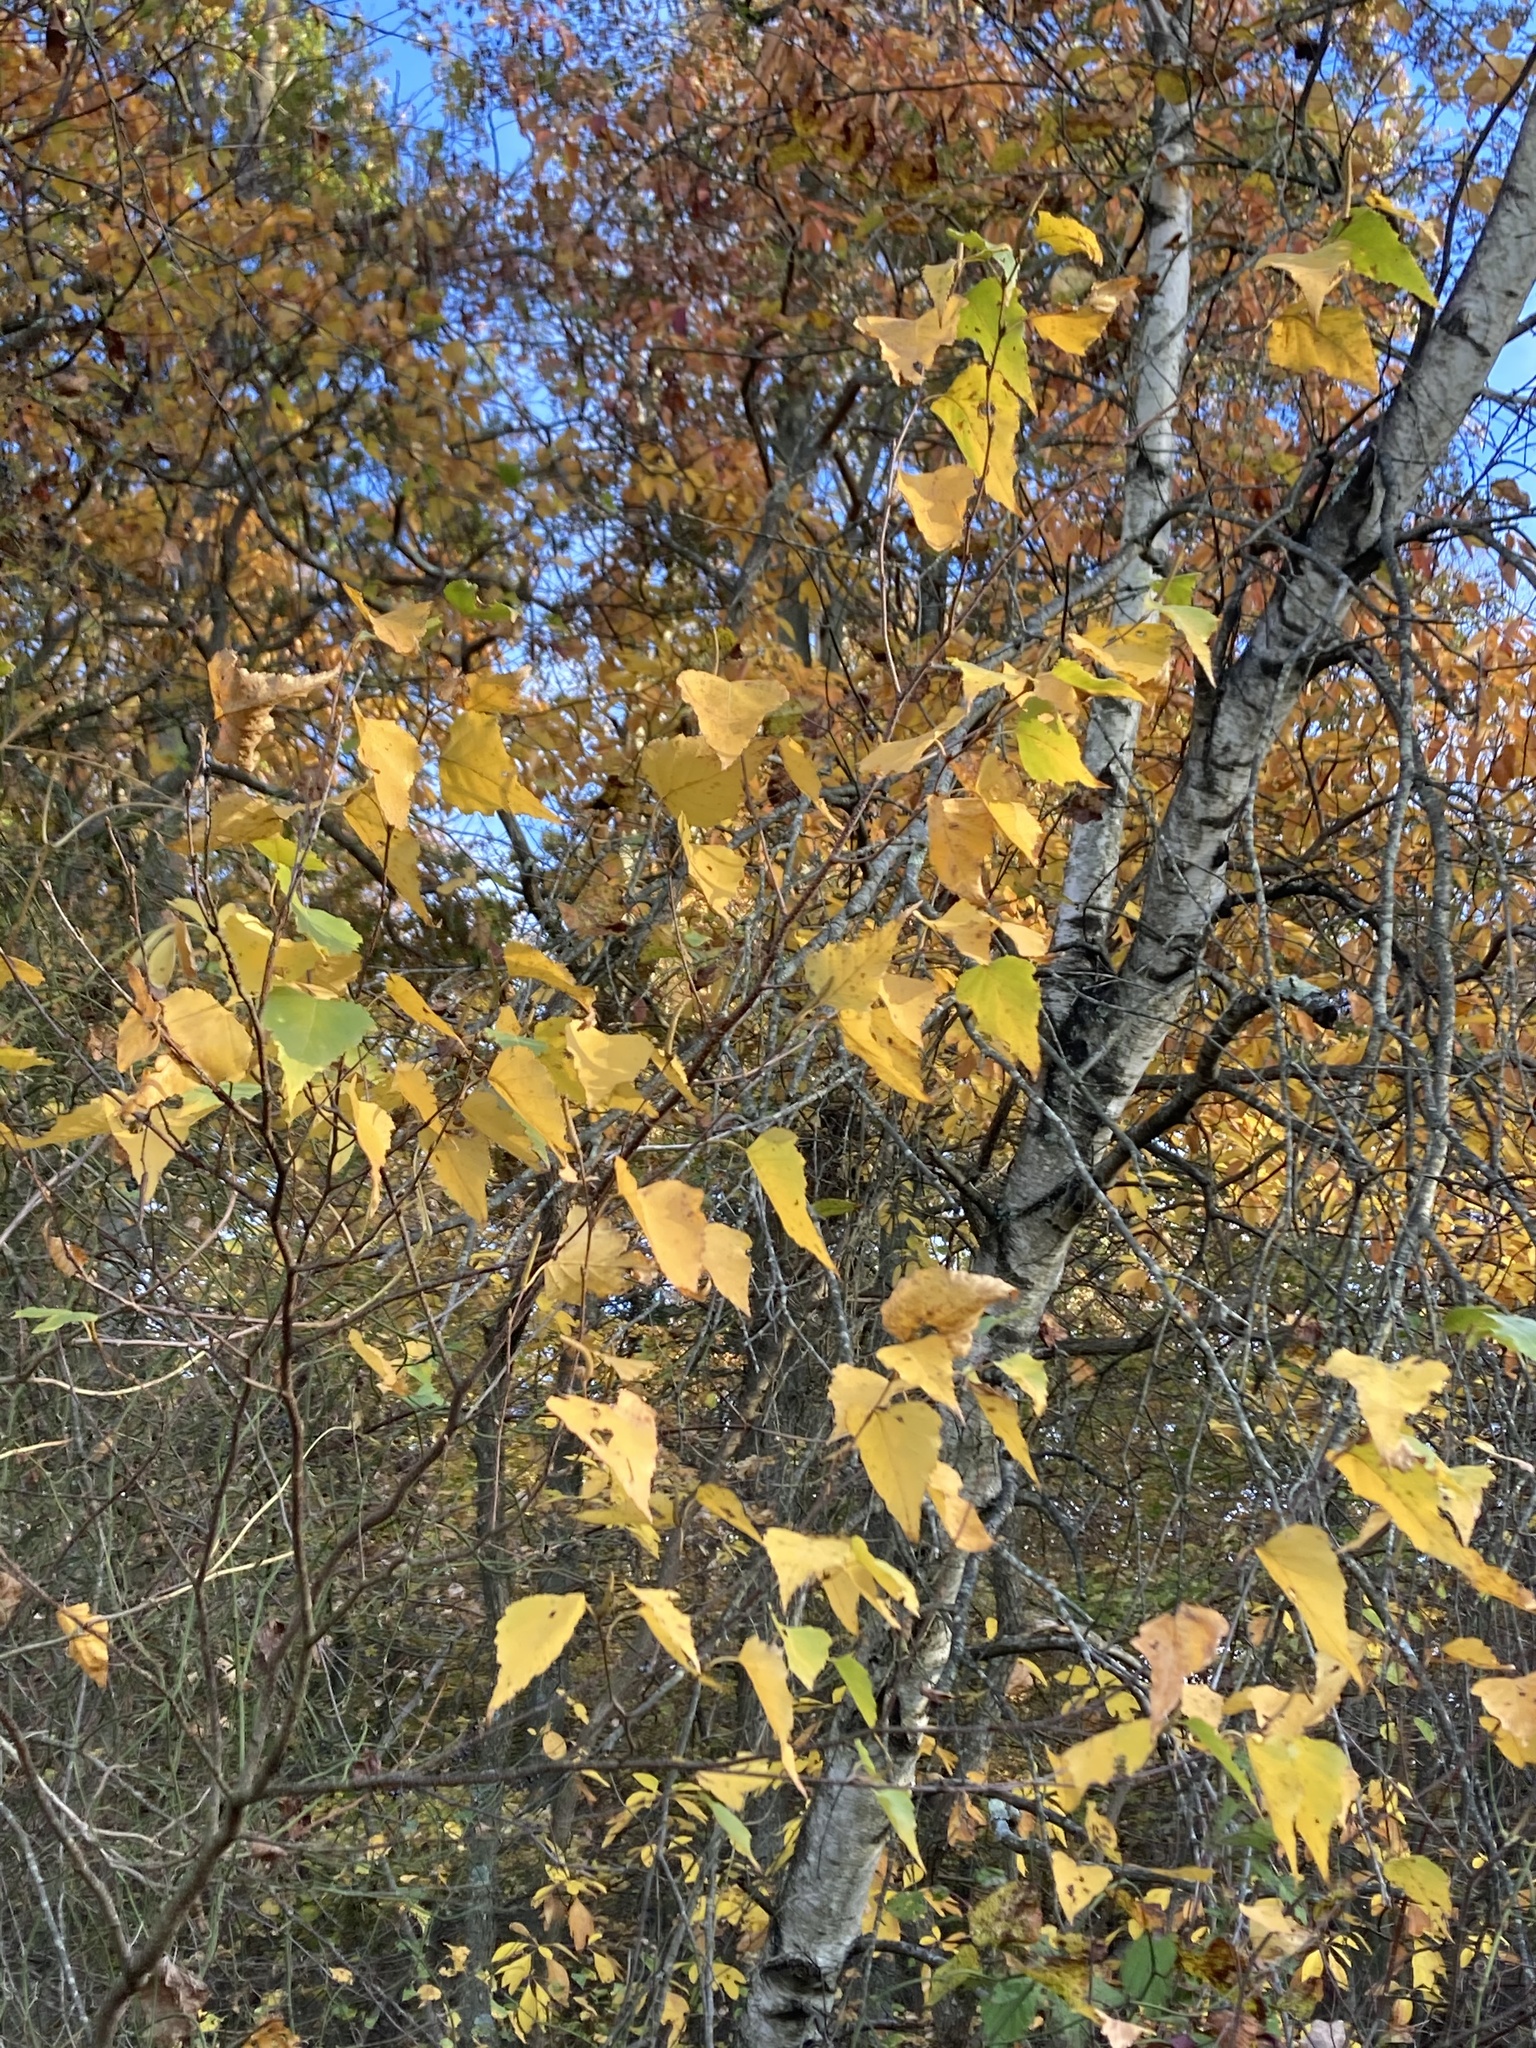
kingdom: Plantae
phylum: Tracheophyta
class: Magnoliopsida
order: Fagales
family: Betulaceae
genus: Betula
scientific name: Betula populifolia
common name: Fire birch
